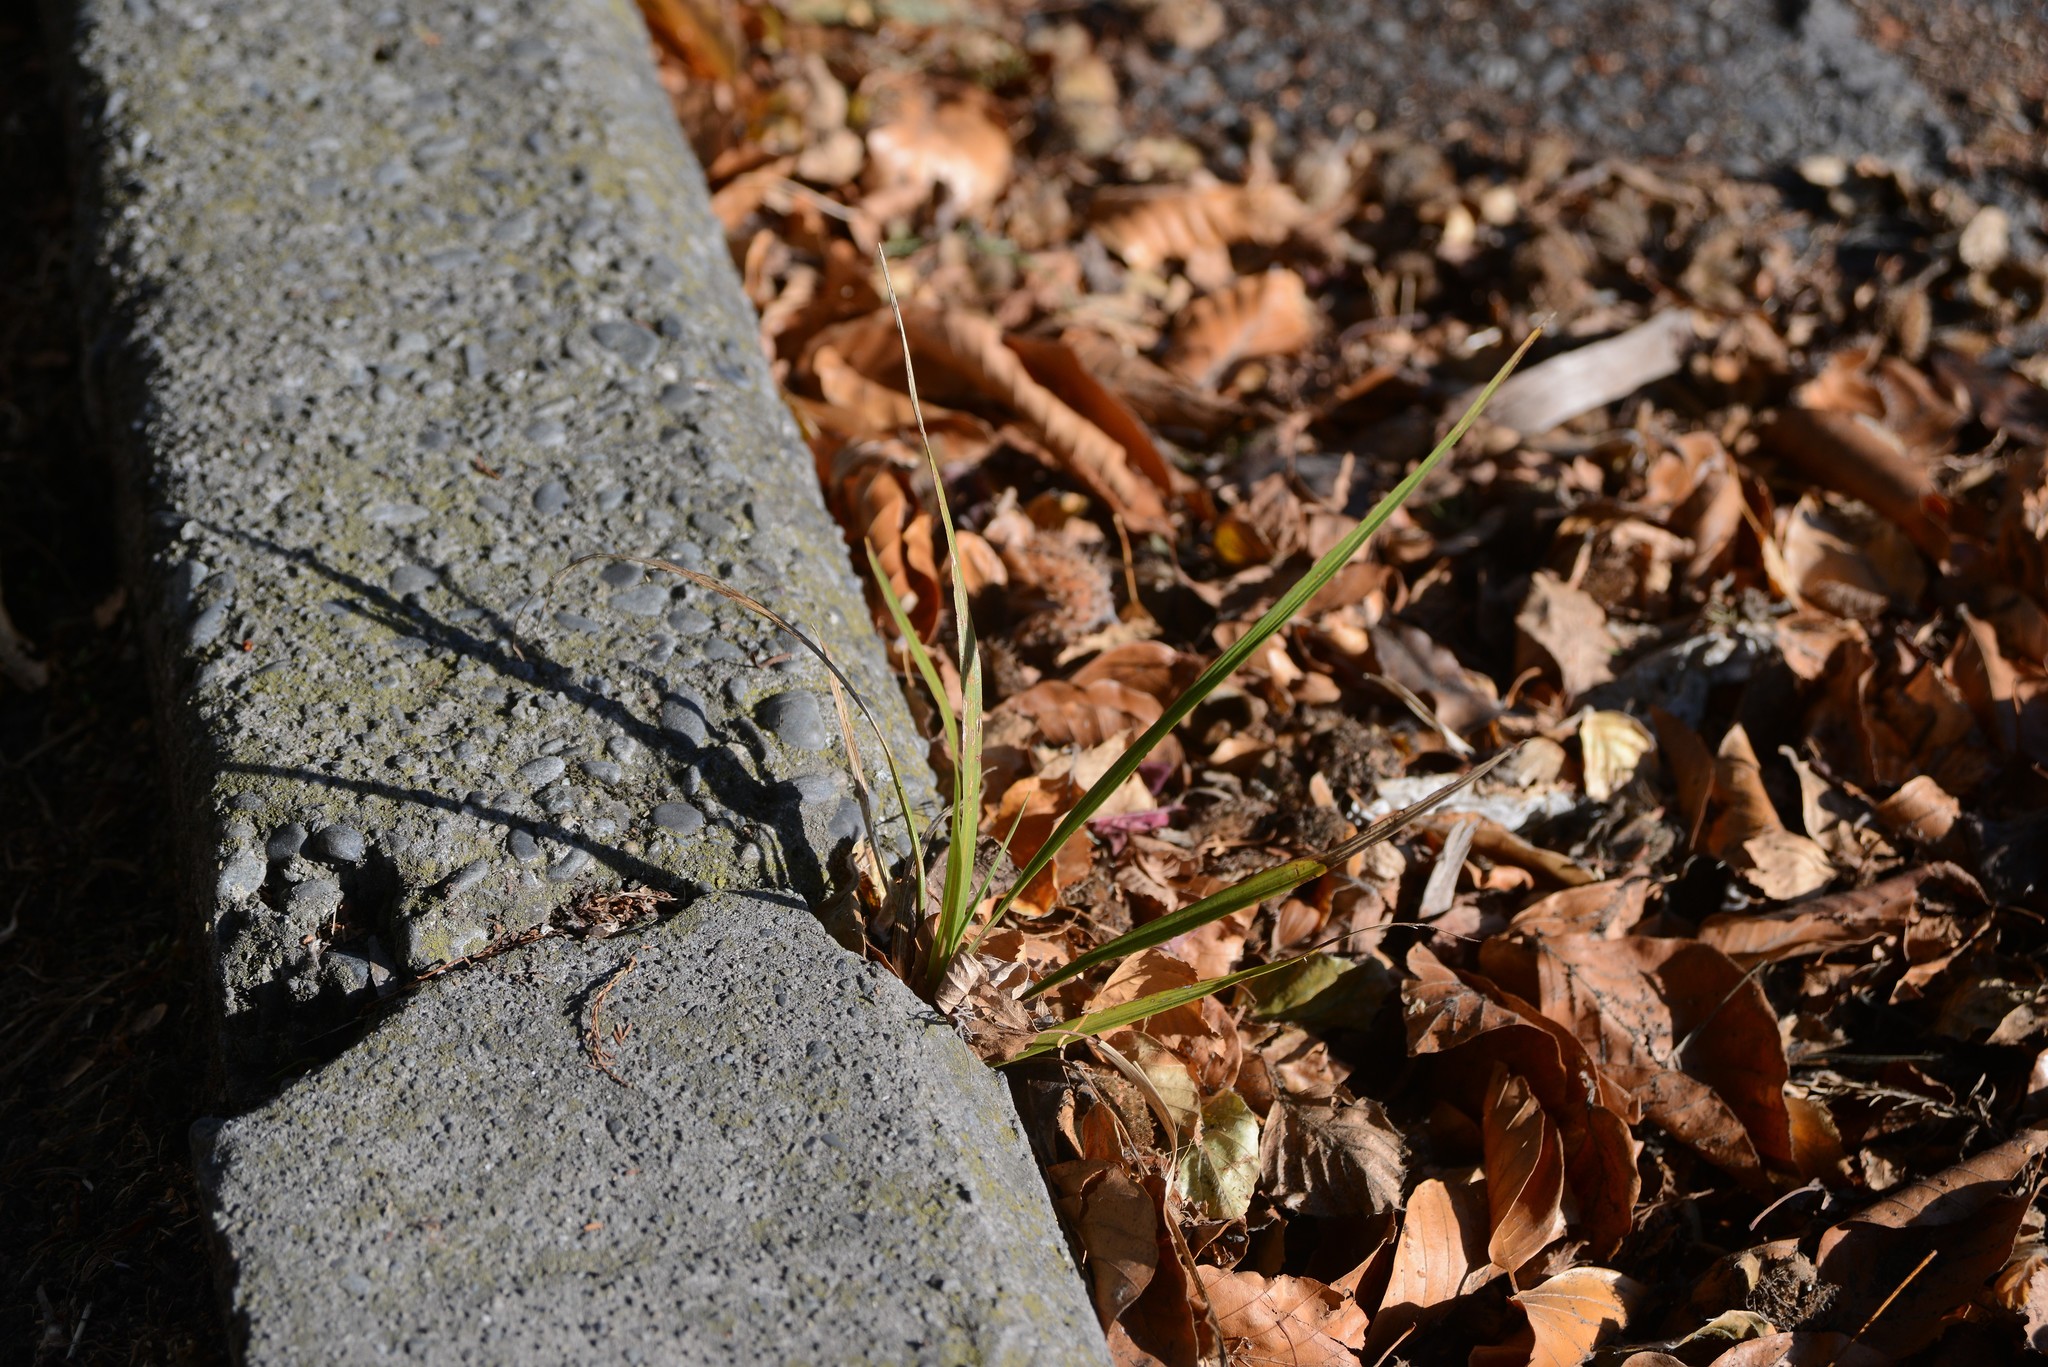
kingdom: Plantae
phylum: Tracheophyta
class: Liliopsida
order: Asparagales
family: Asparagaceae
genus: Cordyline
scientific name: Cordyline australis
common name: Cabbage-palm
